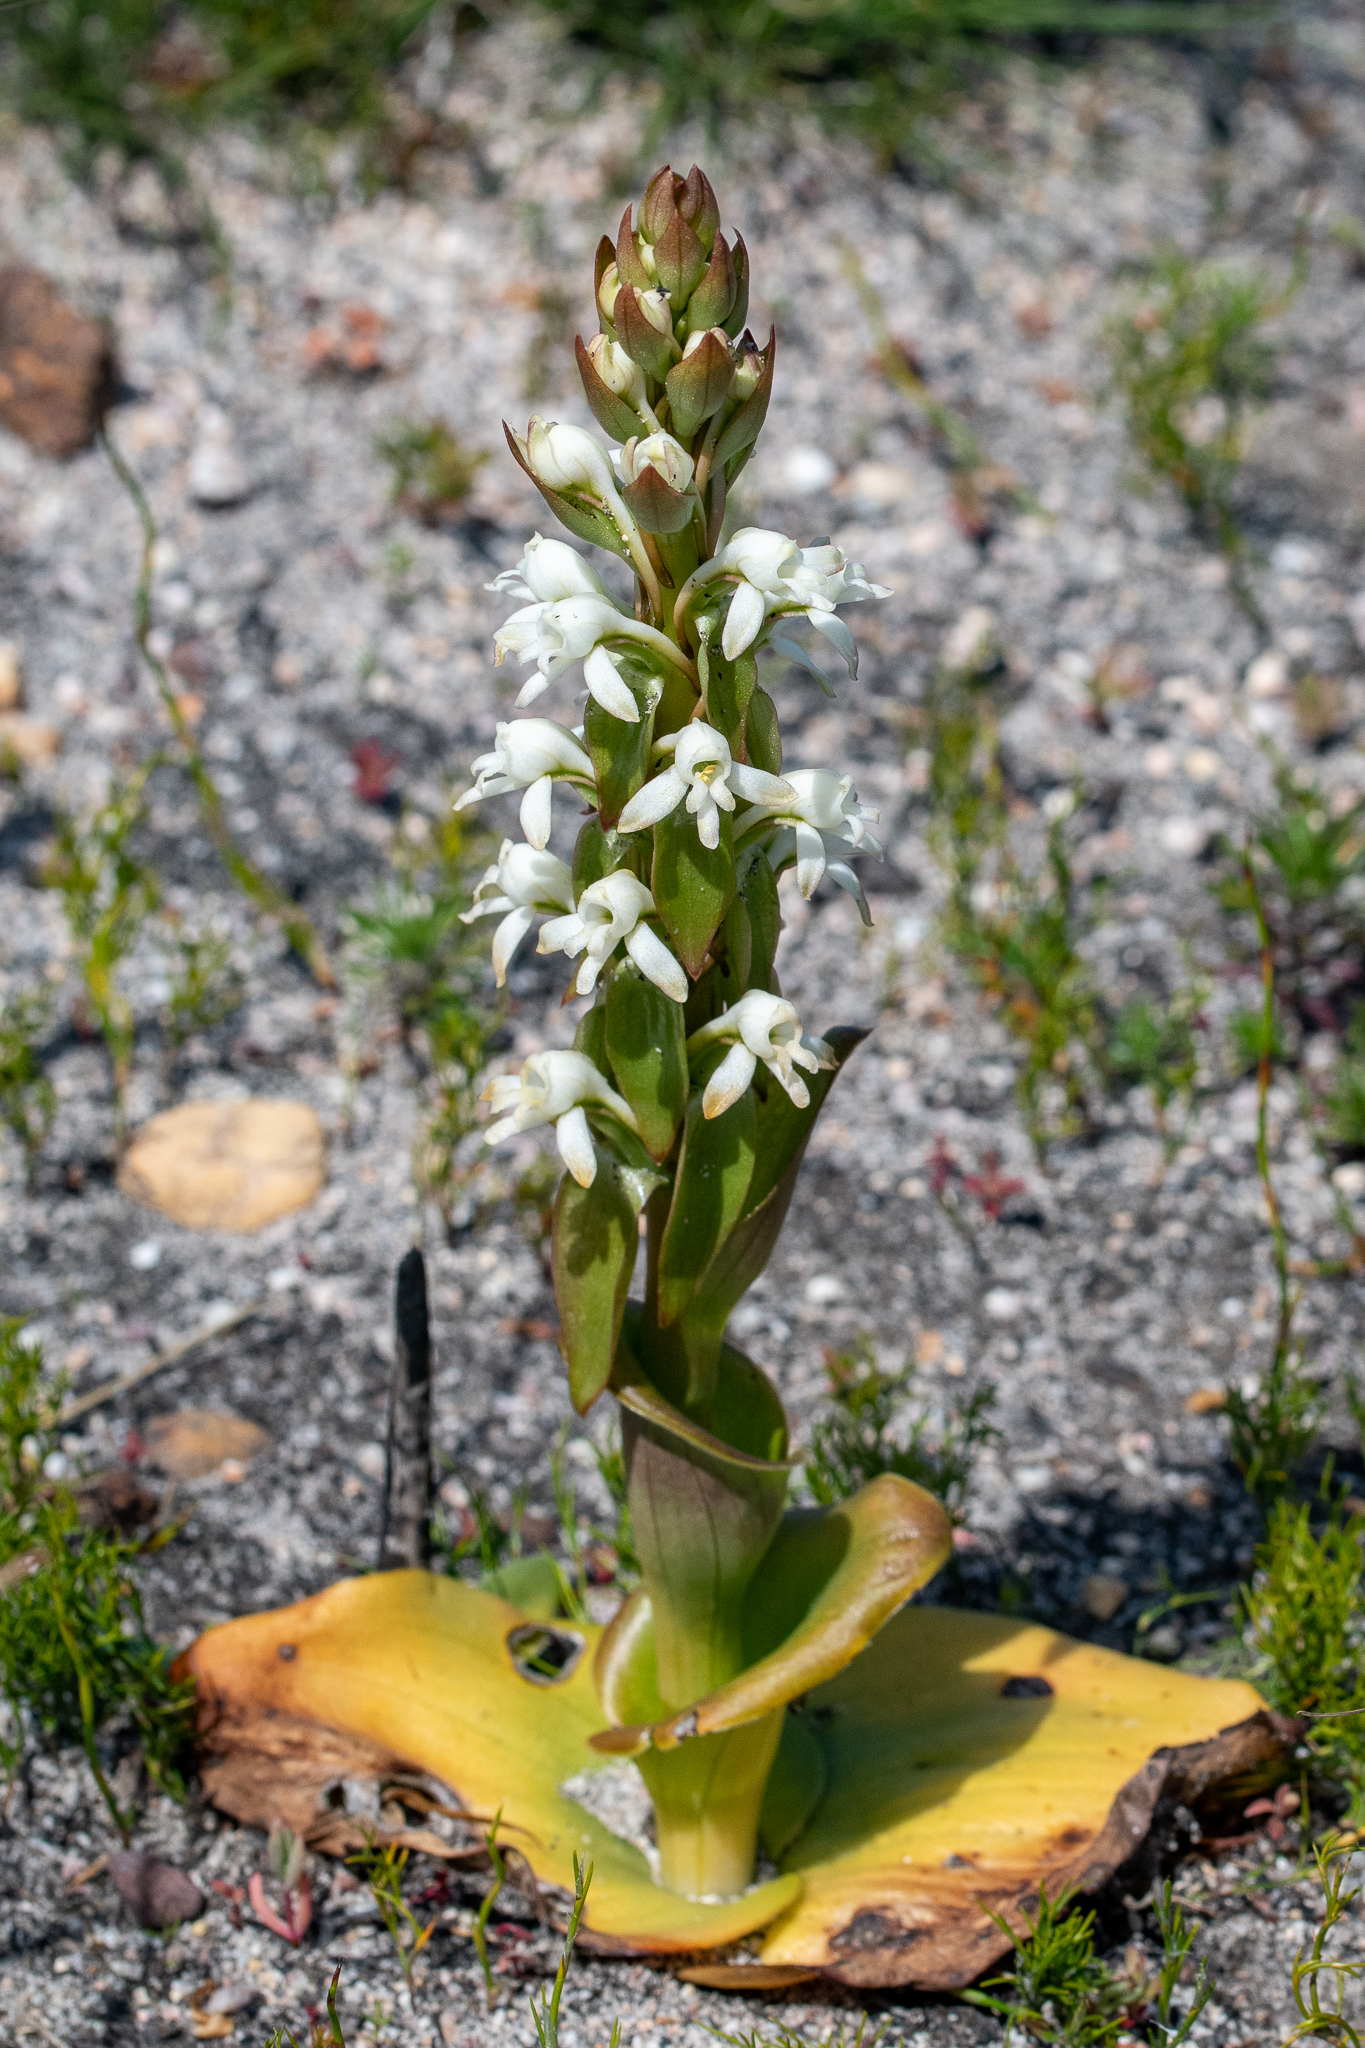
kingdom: Plantae
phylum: Tracheophyta
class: Liliopsida
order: Asparagales
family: Orchidaceae
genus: Satyrium
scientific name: Satyrium candidum
